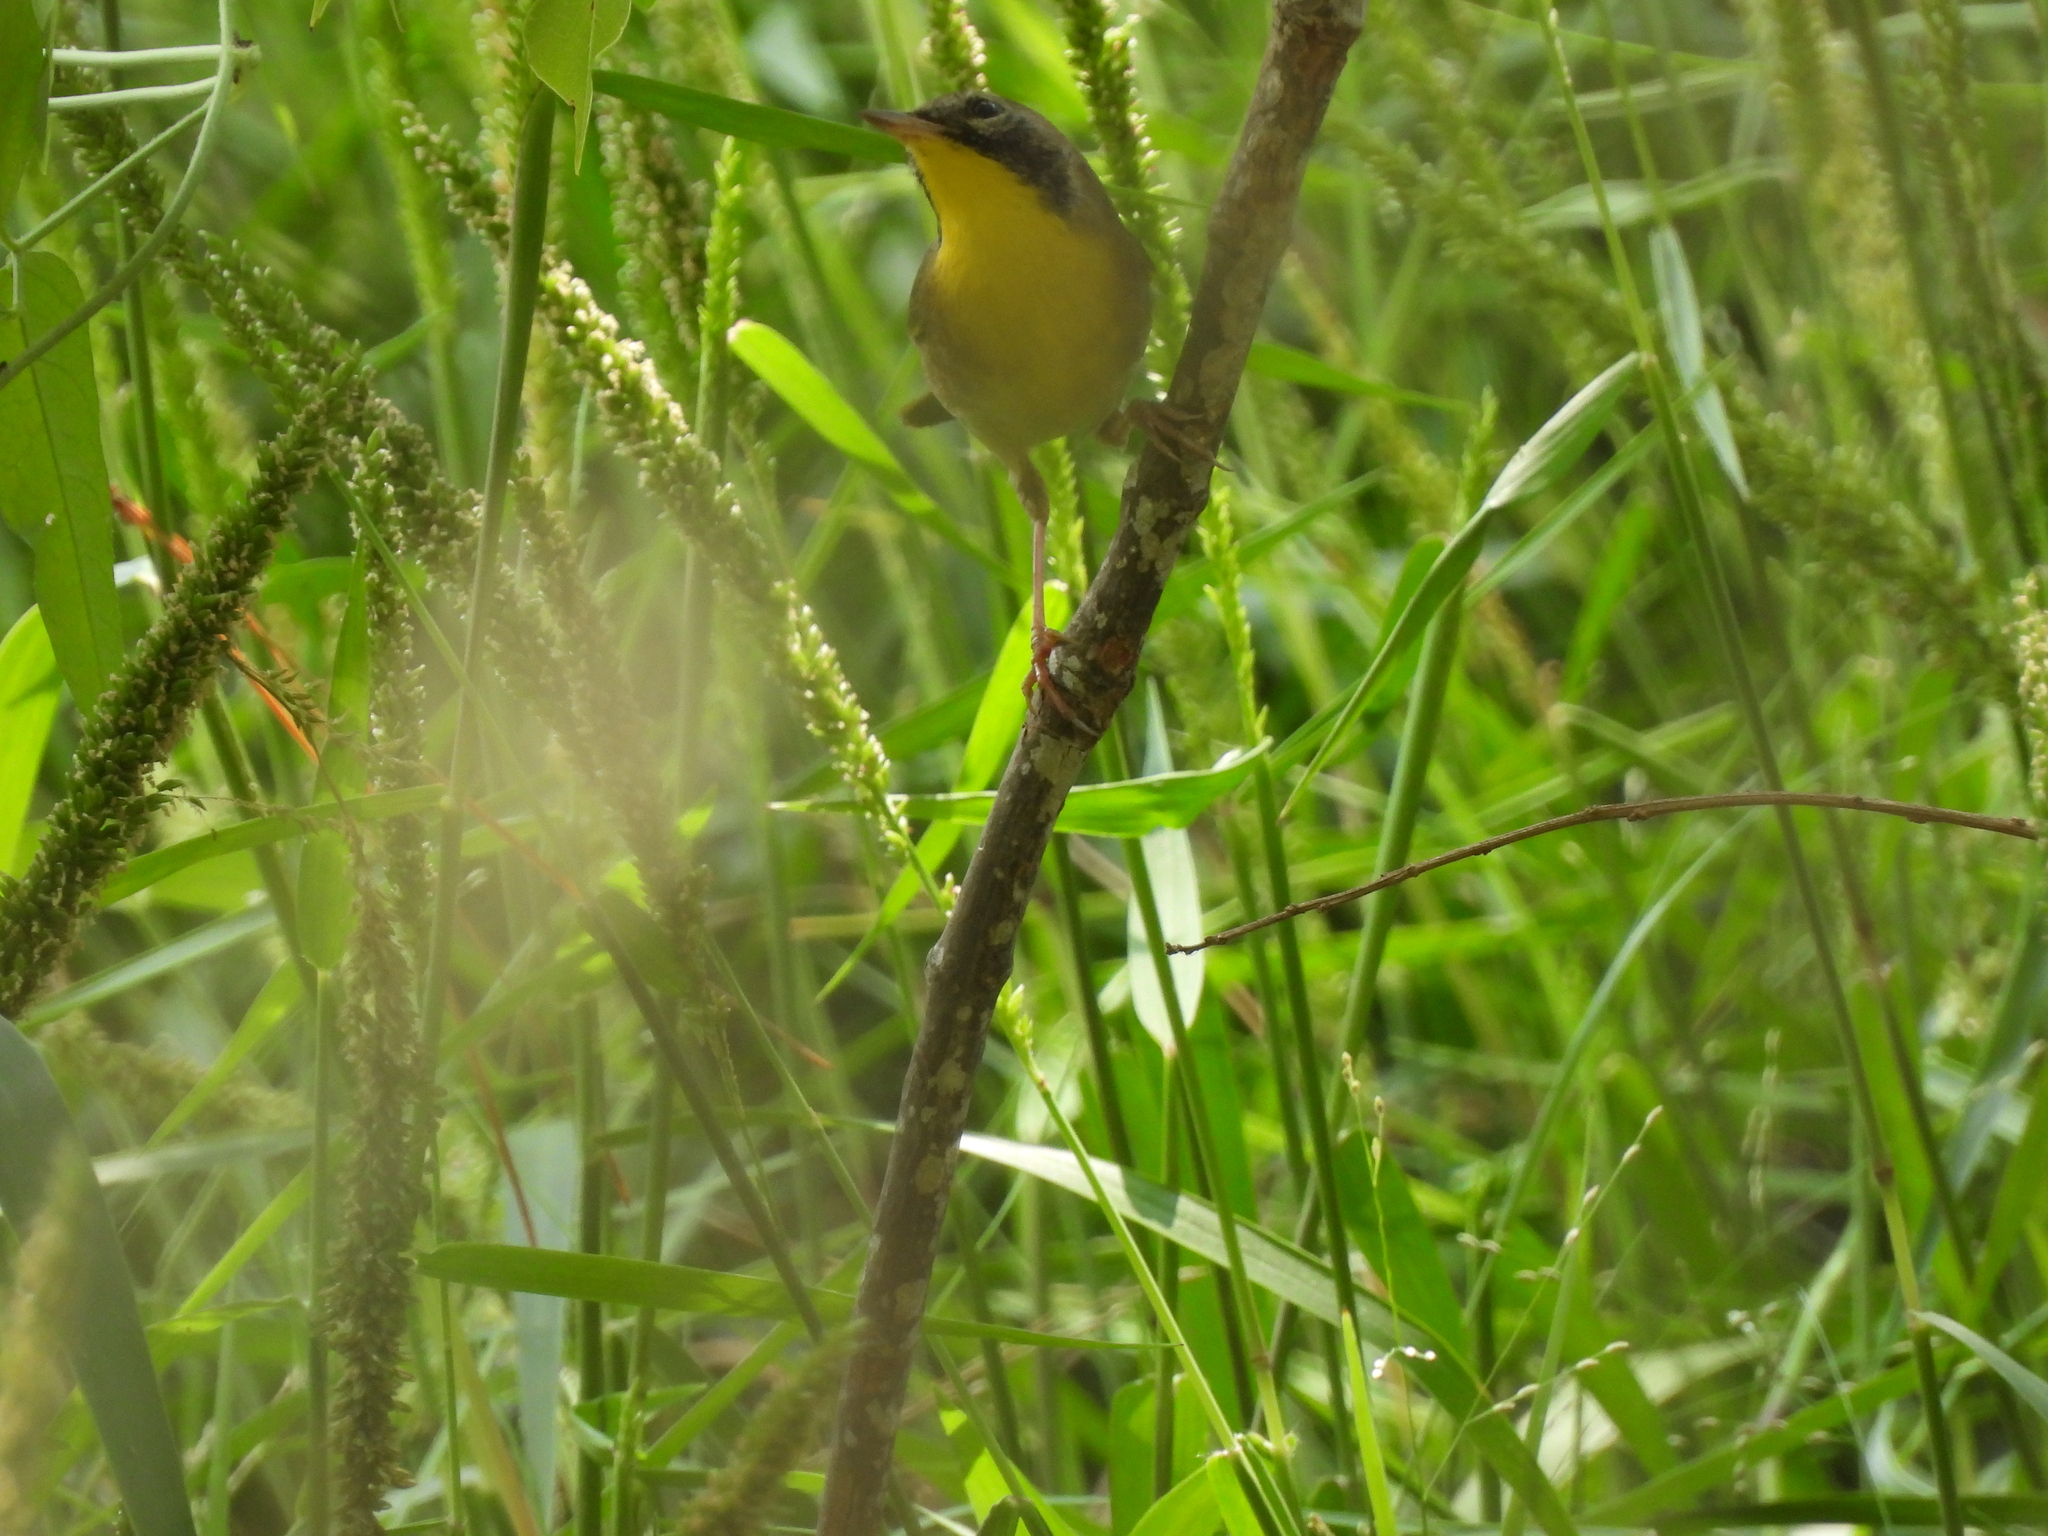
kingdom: Animalia
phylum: Chordata
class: Aves
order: Passeriformes
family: Parulidae
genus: Geothlypis
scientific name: Geothlypis trichas
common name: Common yellowthroat
